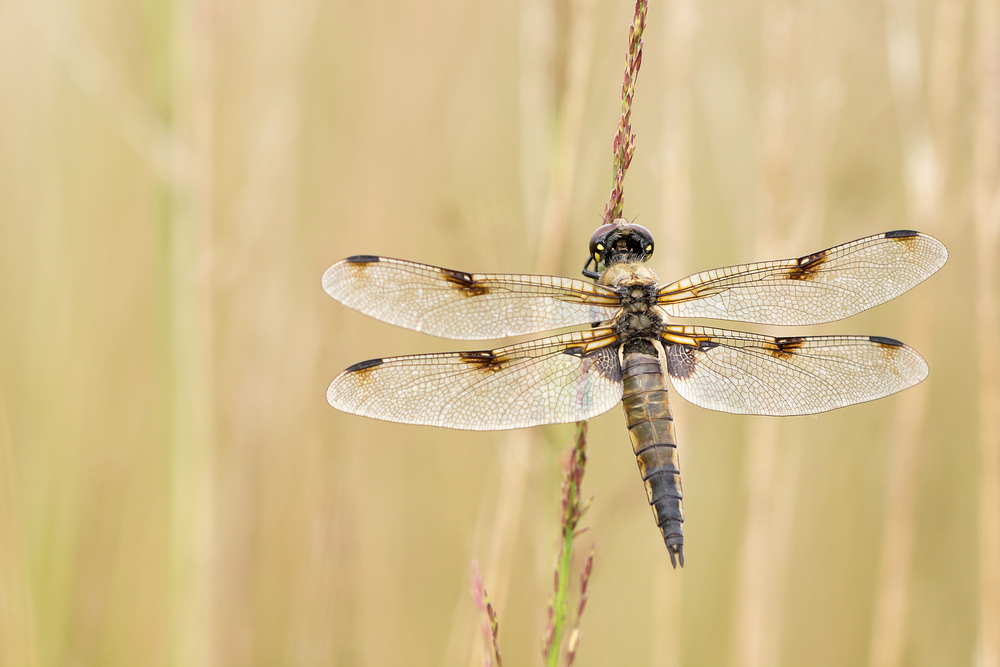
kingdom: Animalia
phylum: Arthropoda
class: Insecta
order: Odonata
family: Libellulidae
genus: Libellula
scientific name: Libellula quadrimaculata
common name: Four-spotted chaser
